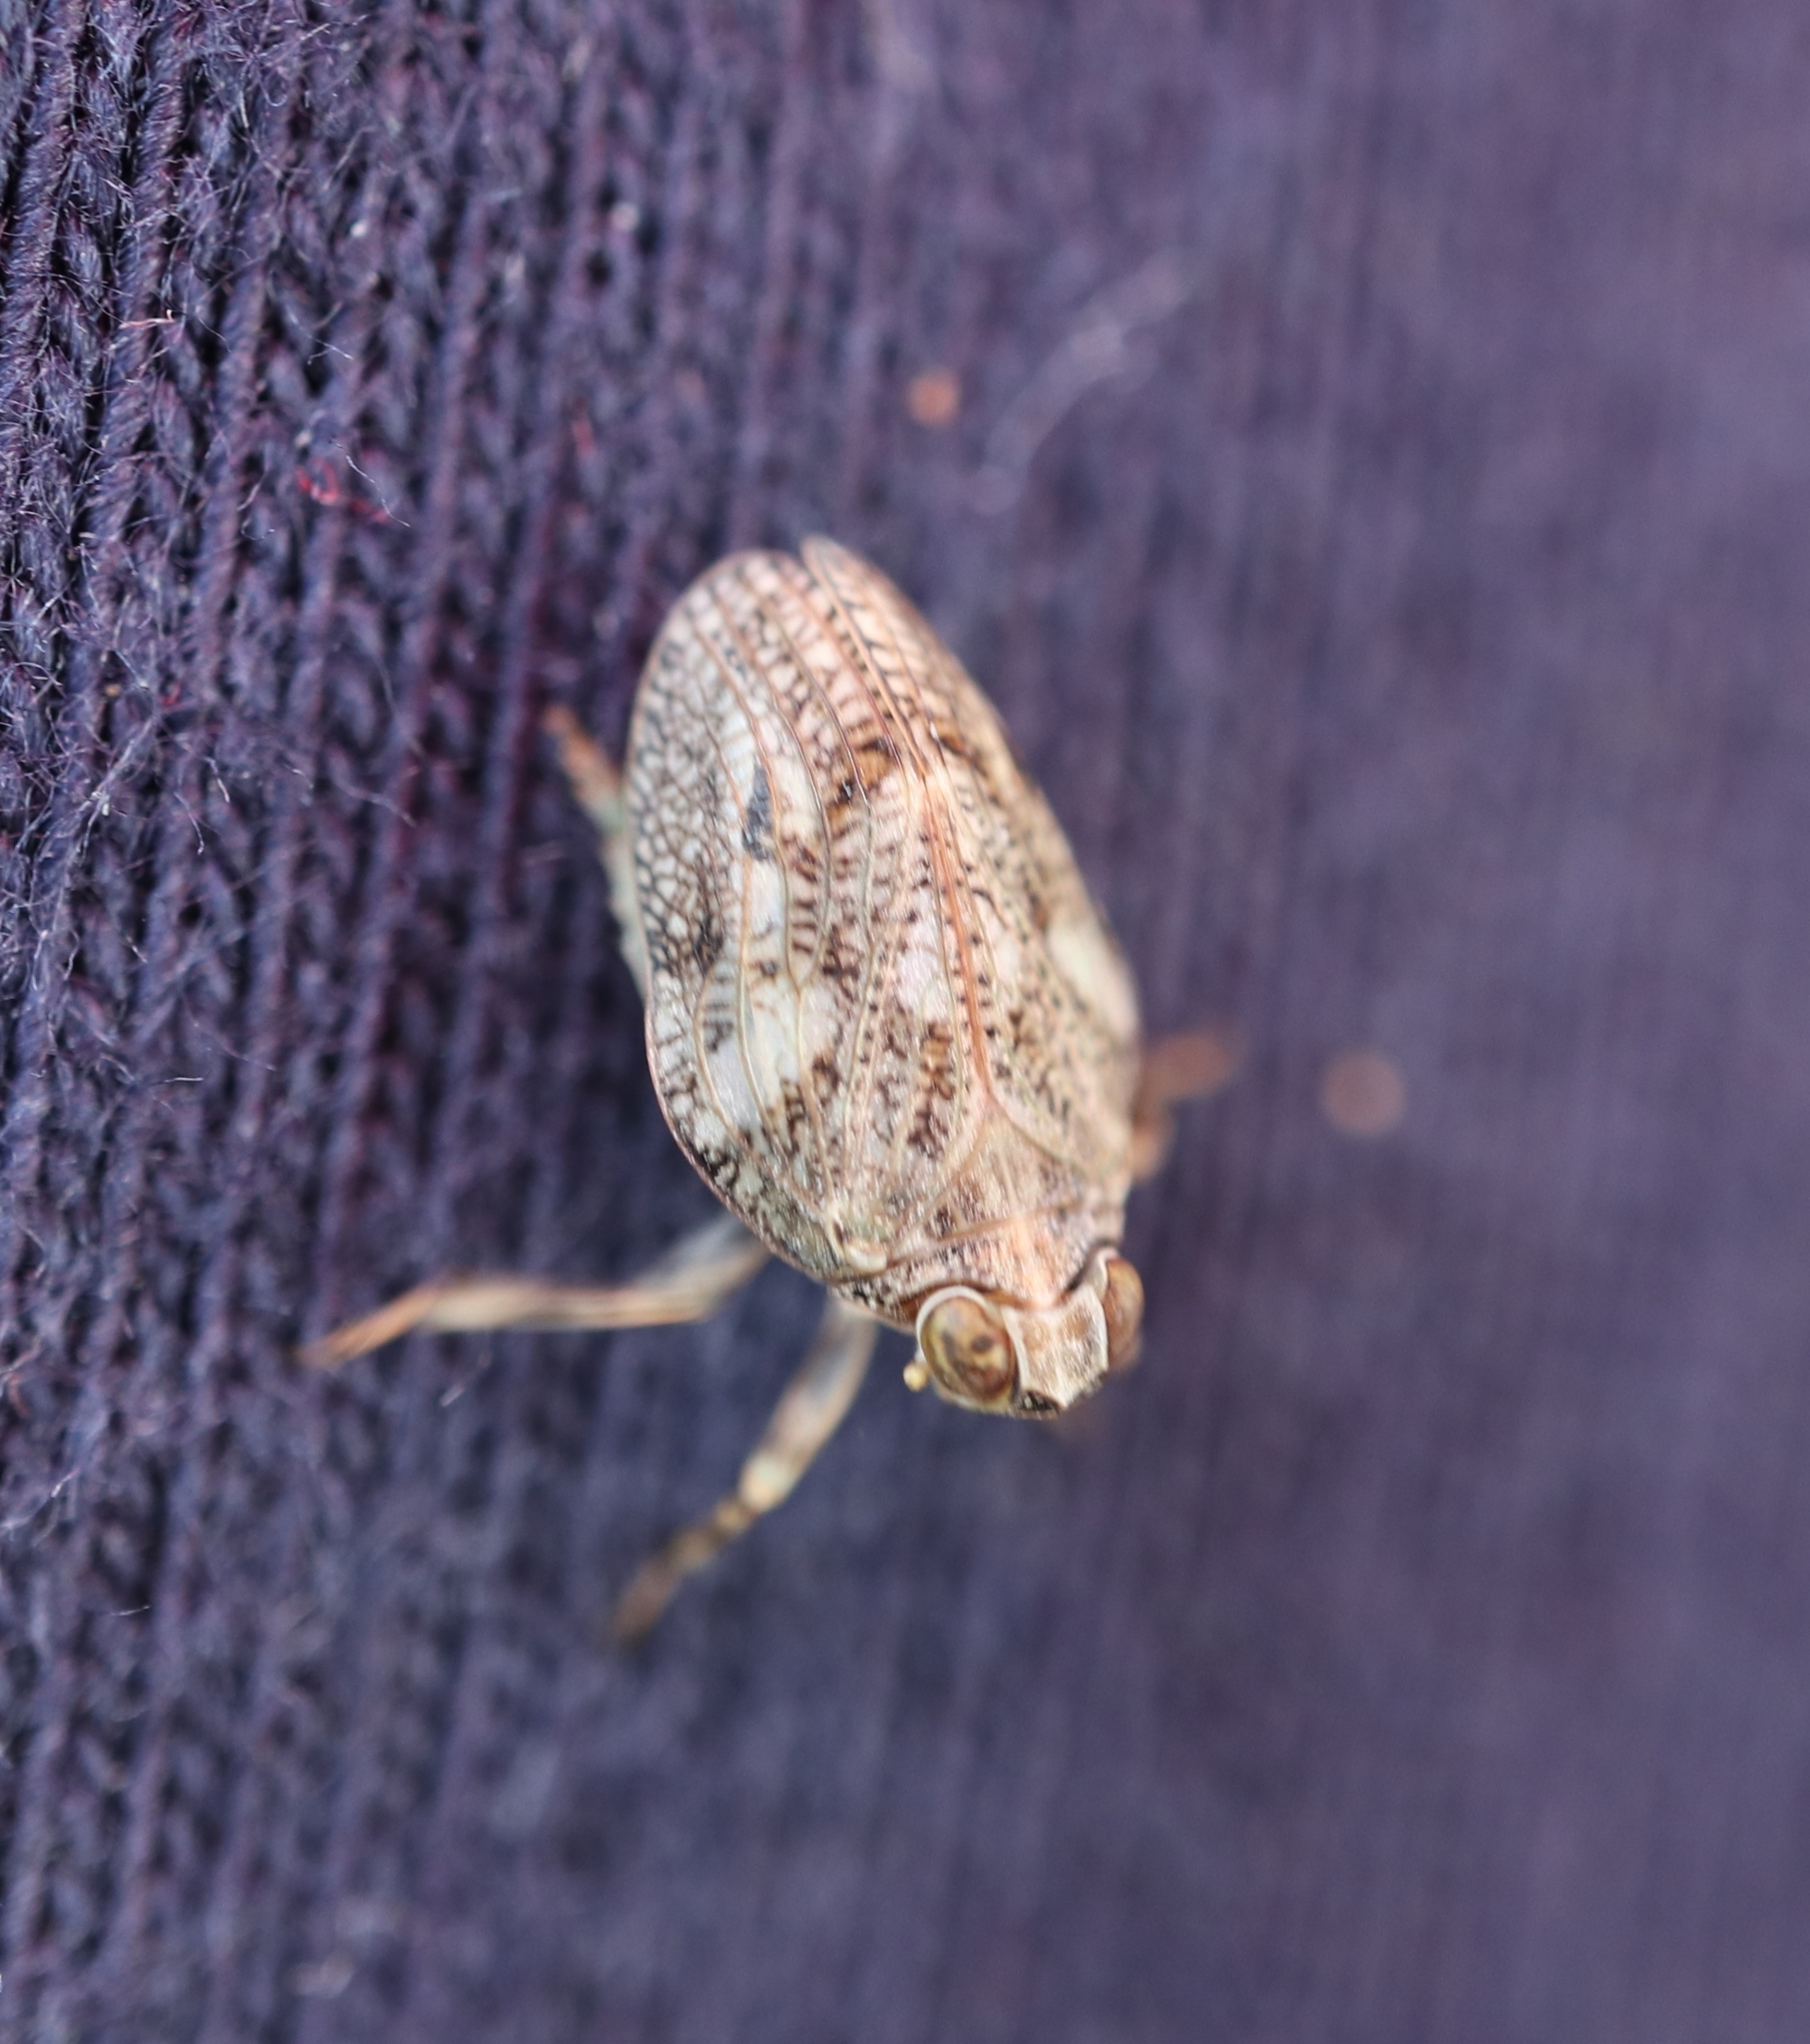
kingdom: Animalia
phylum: Arthropoda
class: Insecta
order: Hemiptera
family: Issidae
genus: Issus
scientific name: Issus coleoptratus
